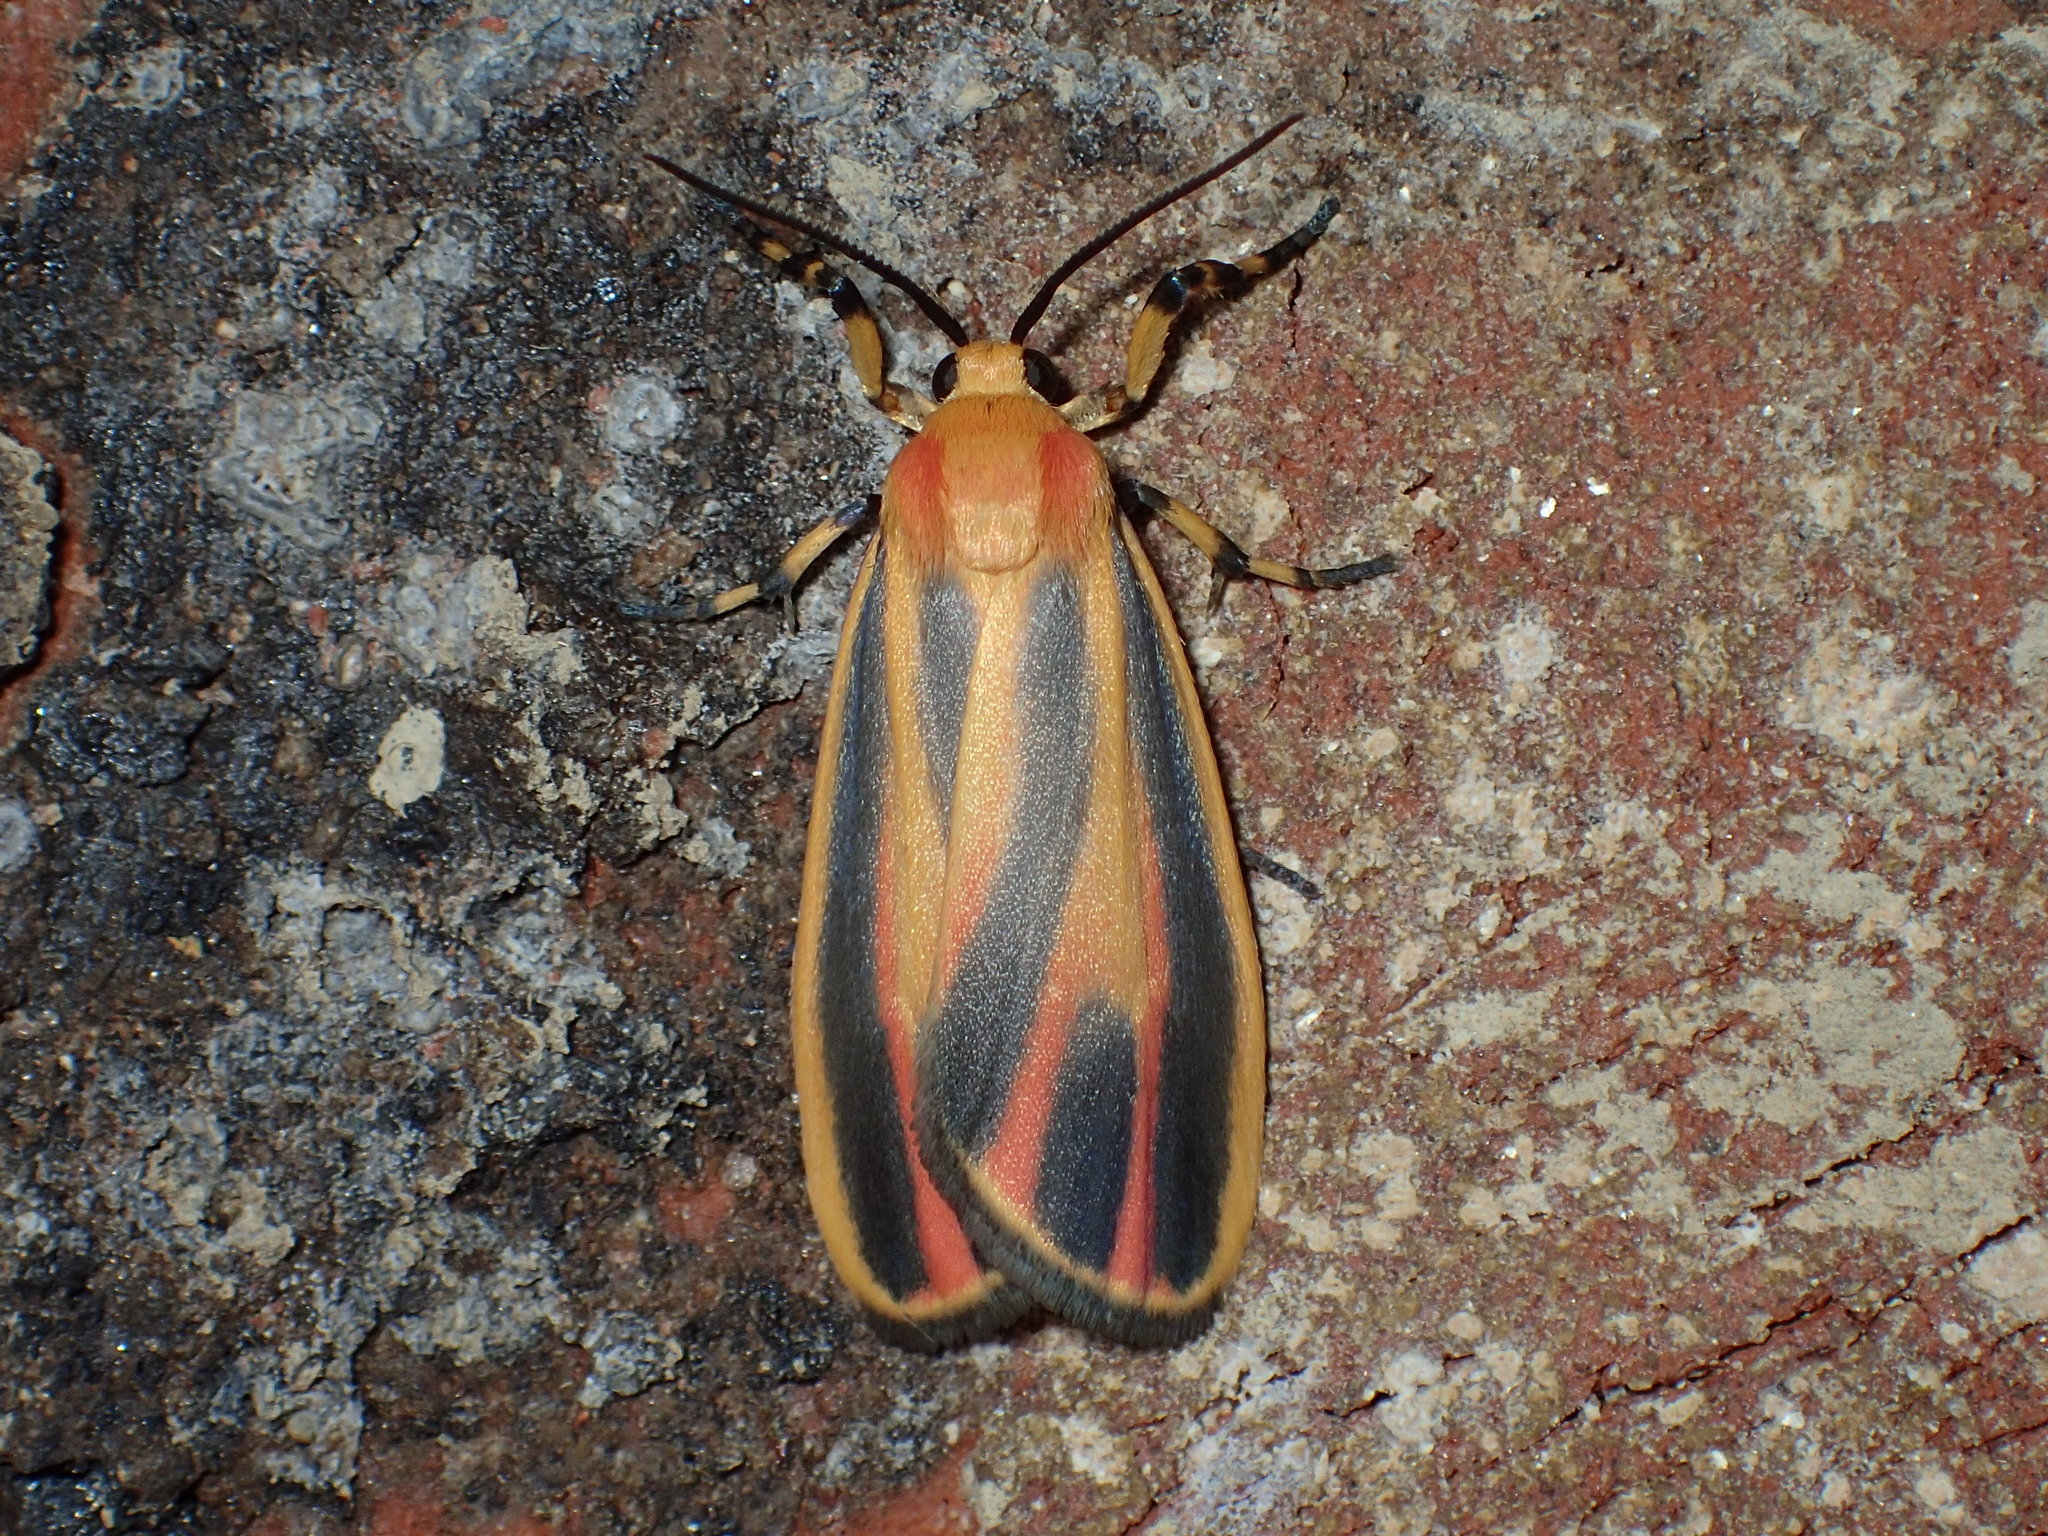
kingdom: Animalia
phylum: Arthropoda
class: Insecta
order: Lepidoptera
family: Erebidae
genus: Hypoprepia
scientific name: Hypoprepia fucosa
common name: Painted lichen moth
